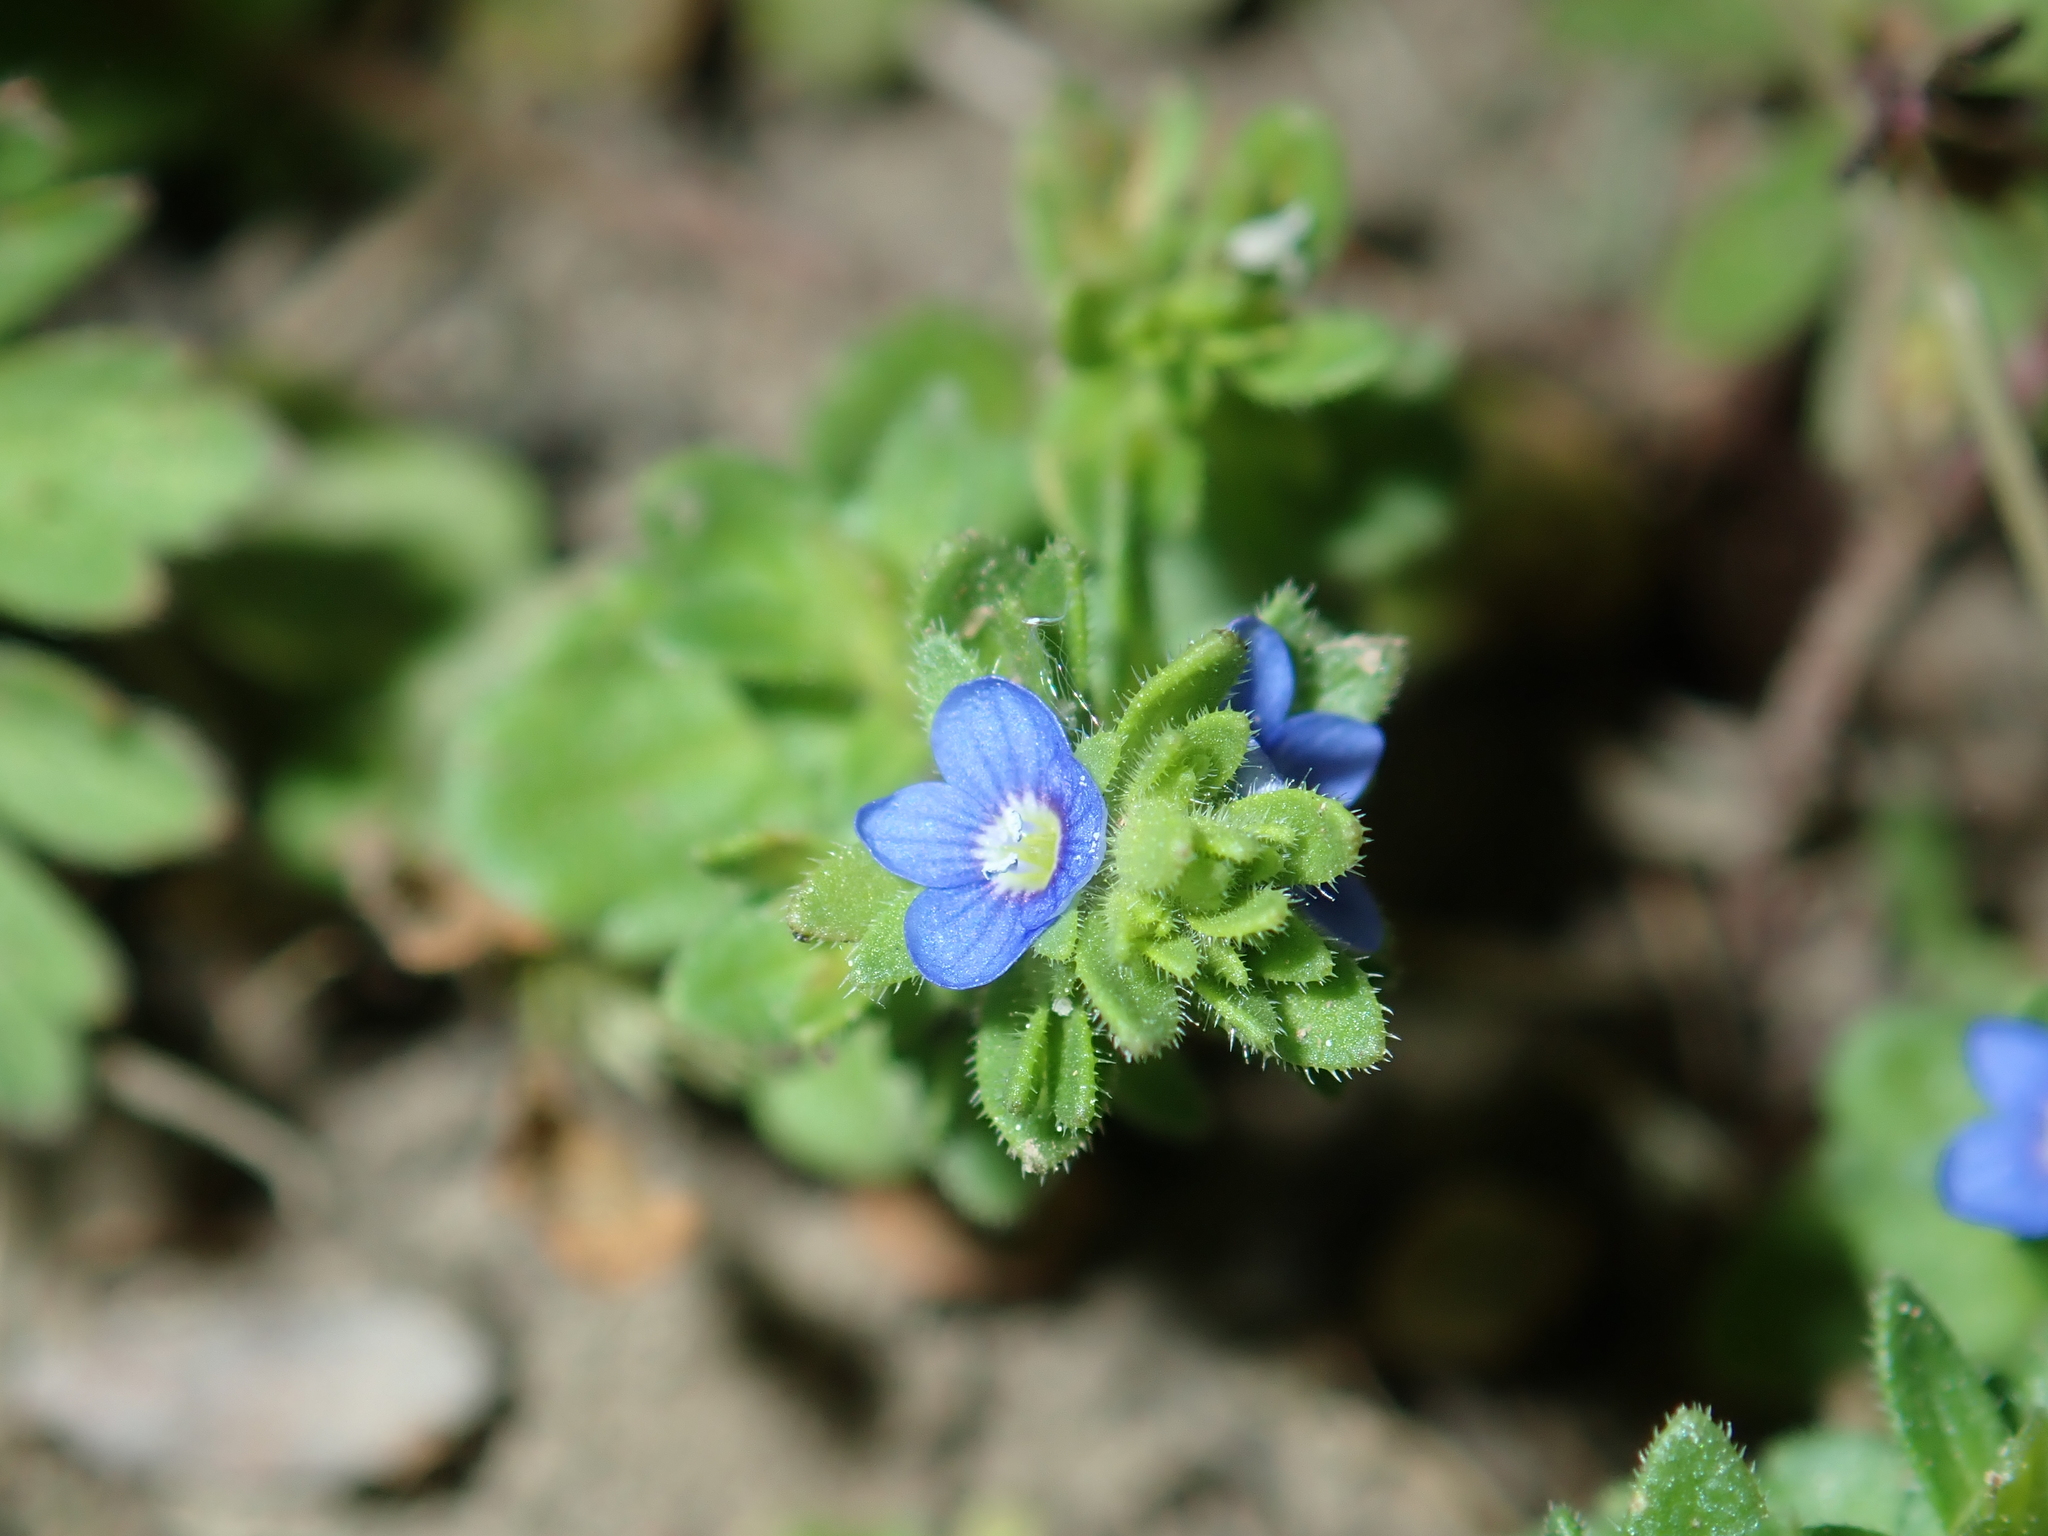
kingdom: Plantae
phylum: Tracheophyta
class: Magnoliopsida
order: Lamiales
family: Plantaginaceae
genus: Veronica
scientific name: Veronica arvensis
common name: Corn speedwell
